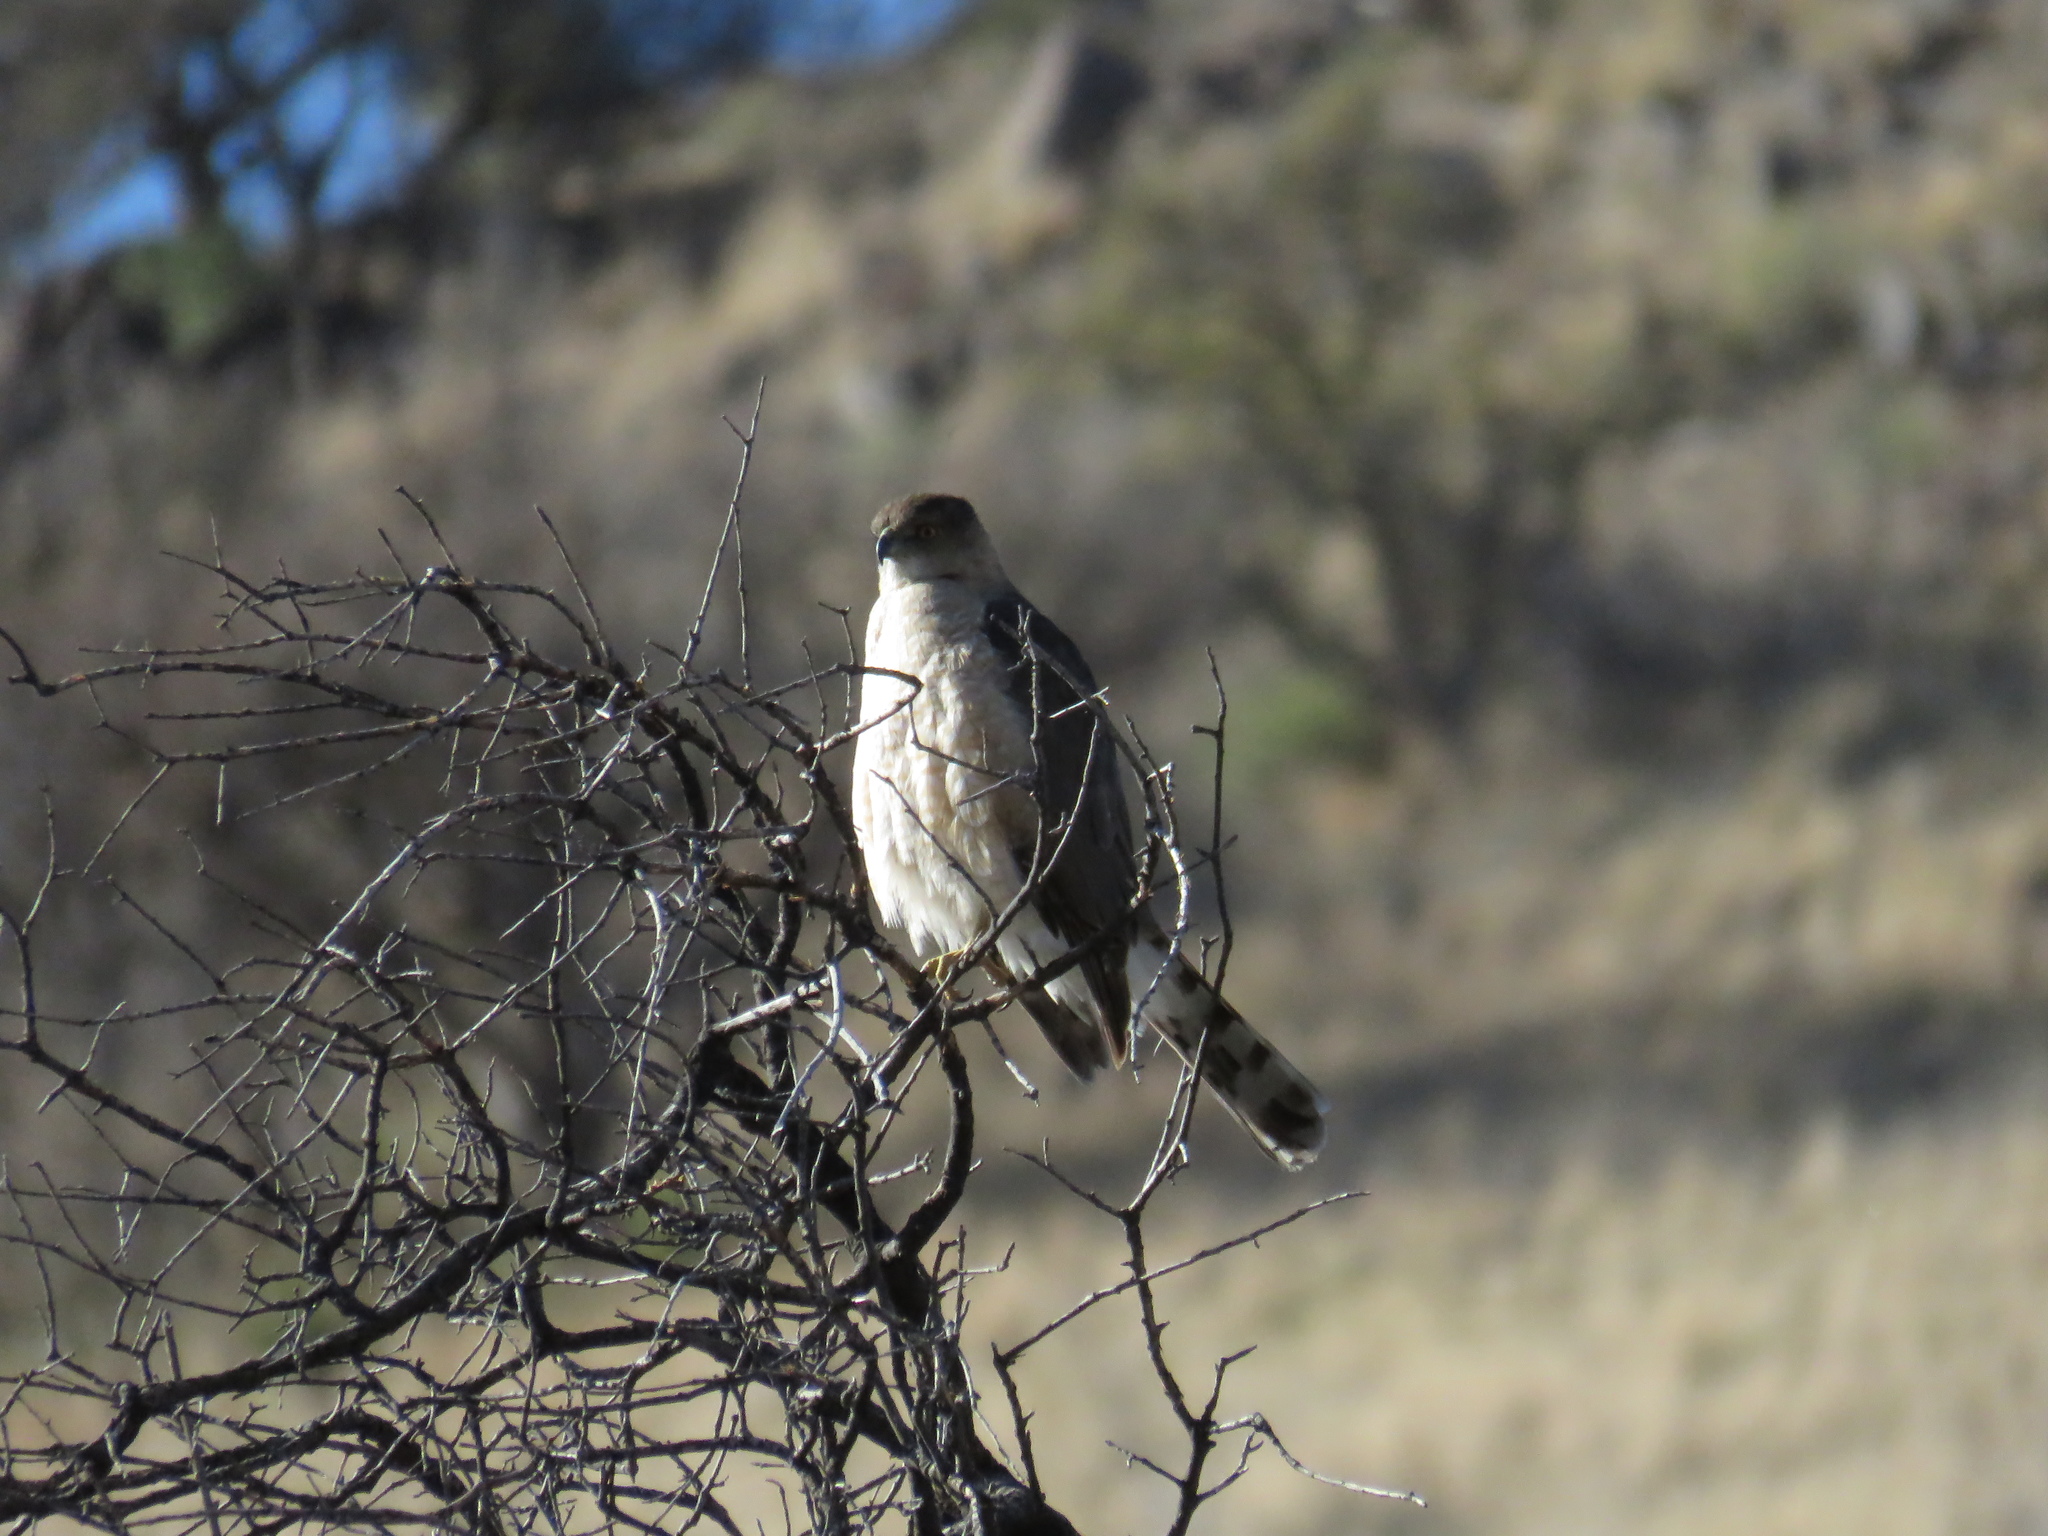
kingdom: Plantae
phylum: Tracheophyta
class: Liliopsida
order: Asparagales
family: Asparagaceae
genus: Yucca
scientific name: Yucca treculiana
